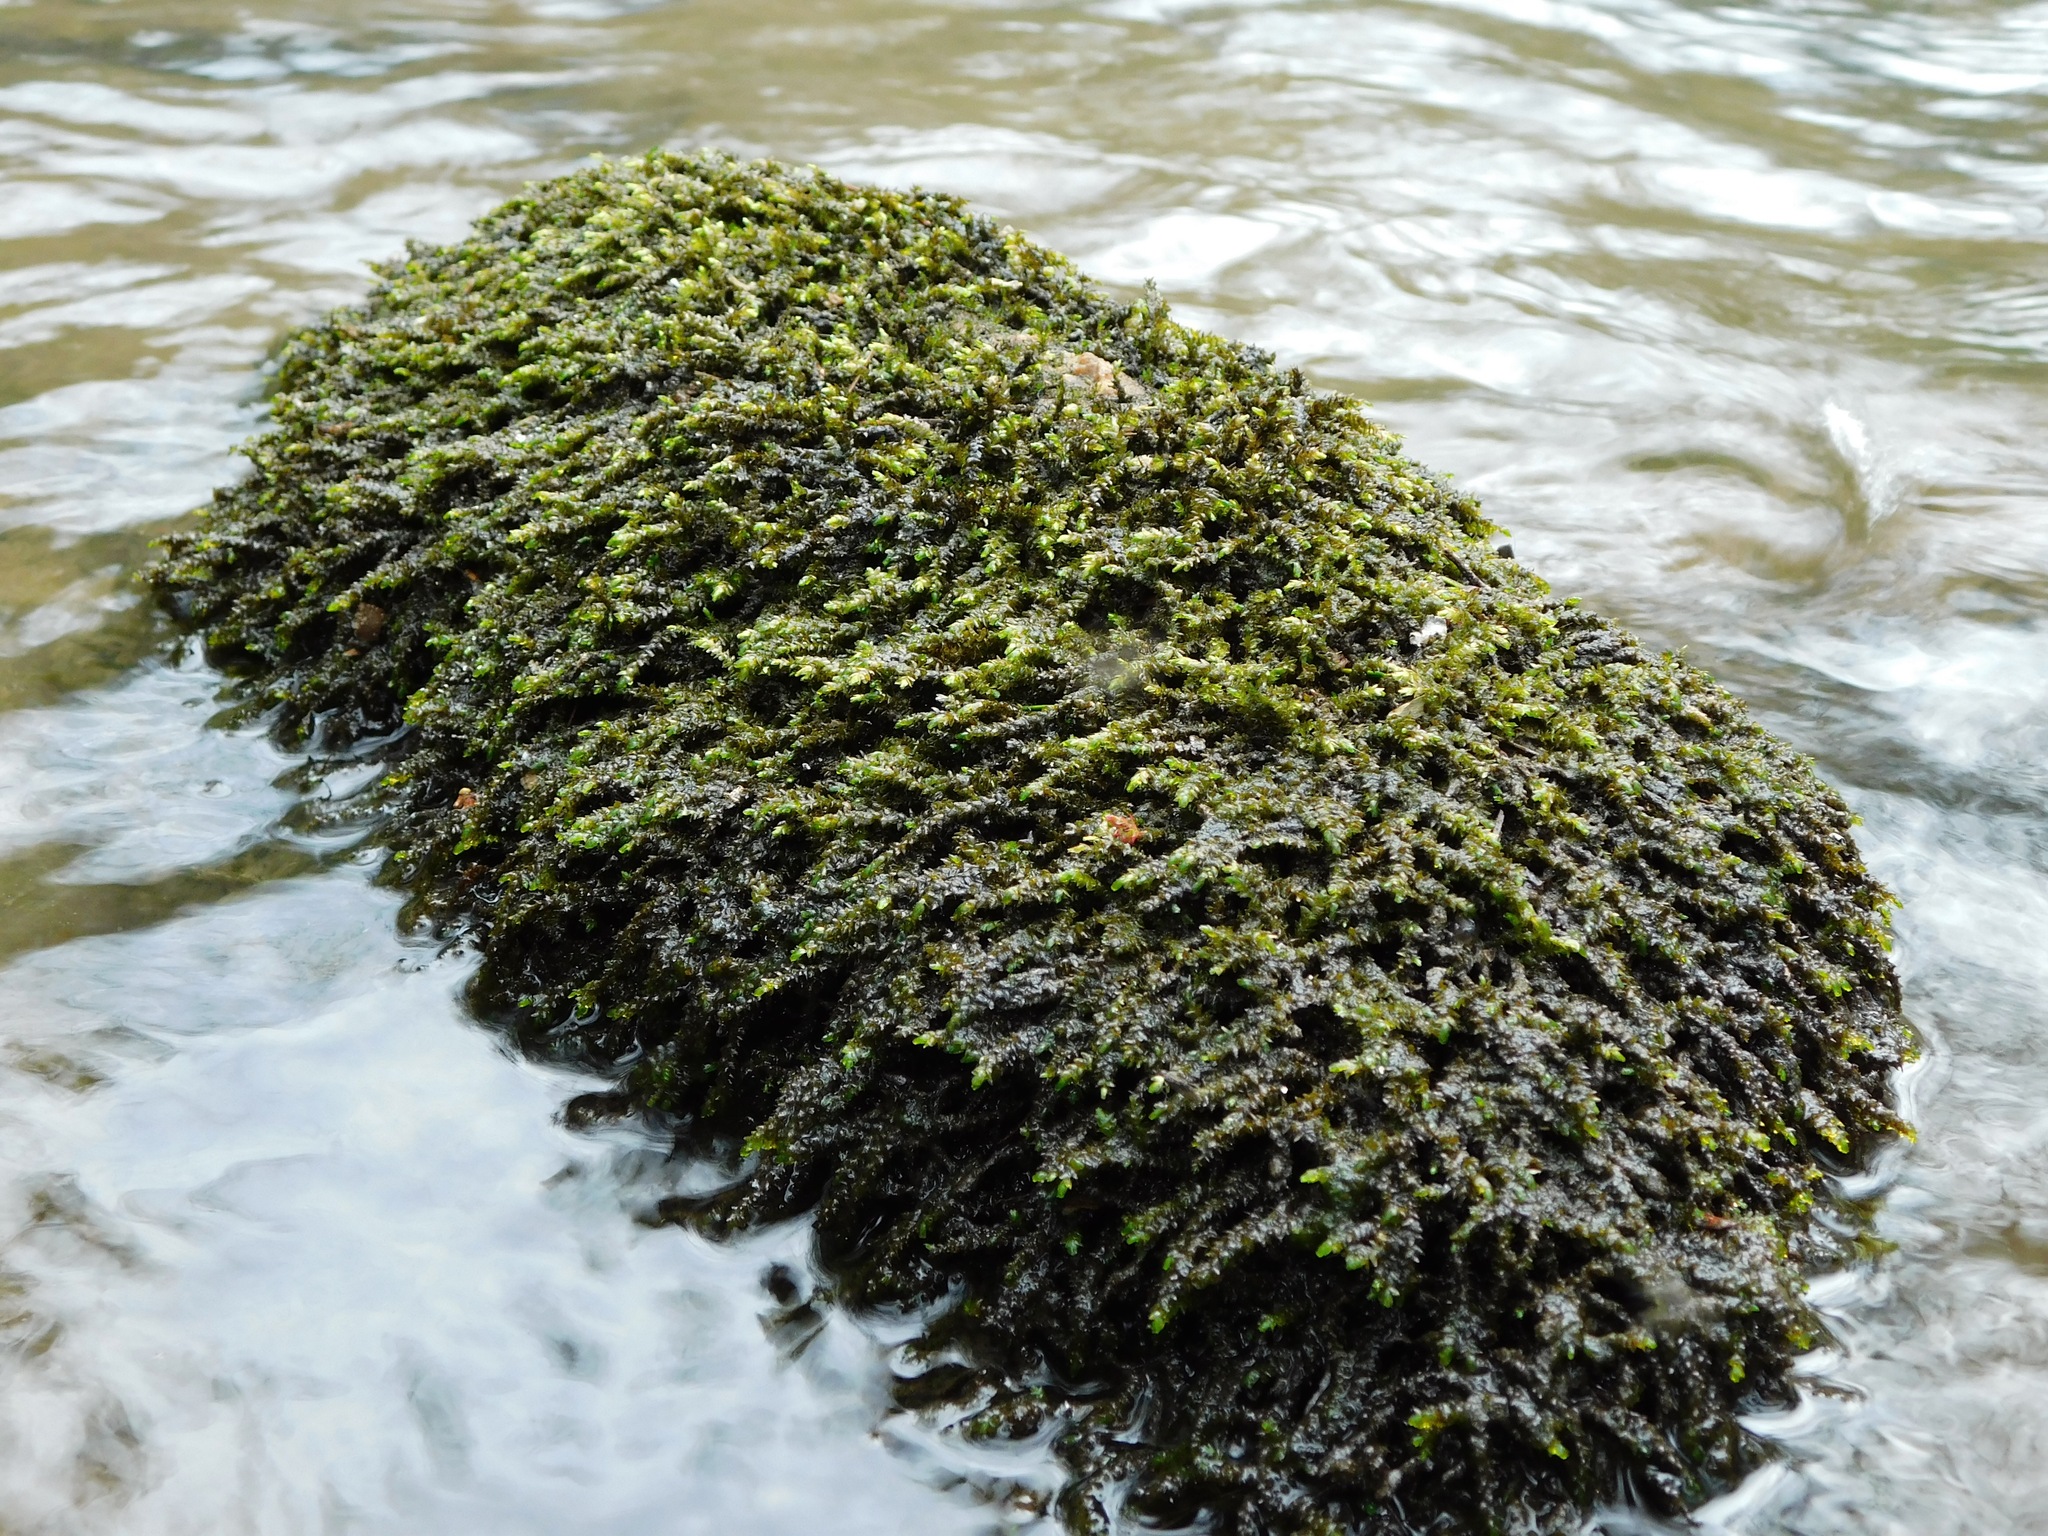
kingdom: Plantae
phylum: Bryophyta
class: Bryopsida
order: Hypnales
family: Brachytheciaceae
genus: Rhynchostegium
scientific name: Rhynchostegium aquaticum
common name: Aquatic long-beaked moss
